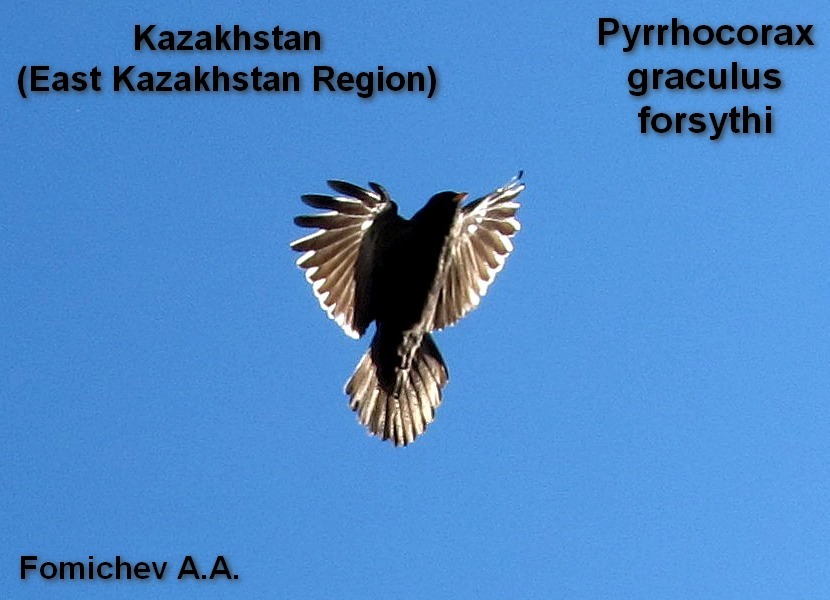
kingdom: Animalia
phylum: Chordata
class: Aves
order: Passeriformes
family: Corvidae
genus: Pyrrhocorax
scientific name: Pyrrhocorax graculus
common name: Alpine chough
